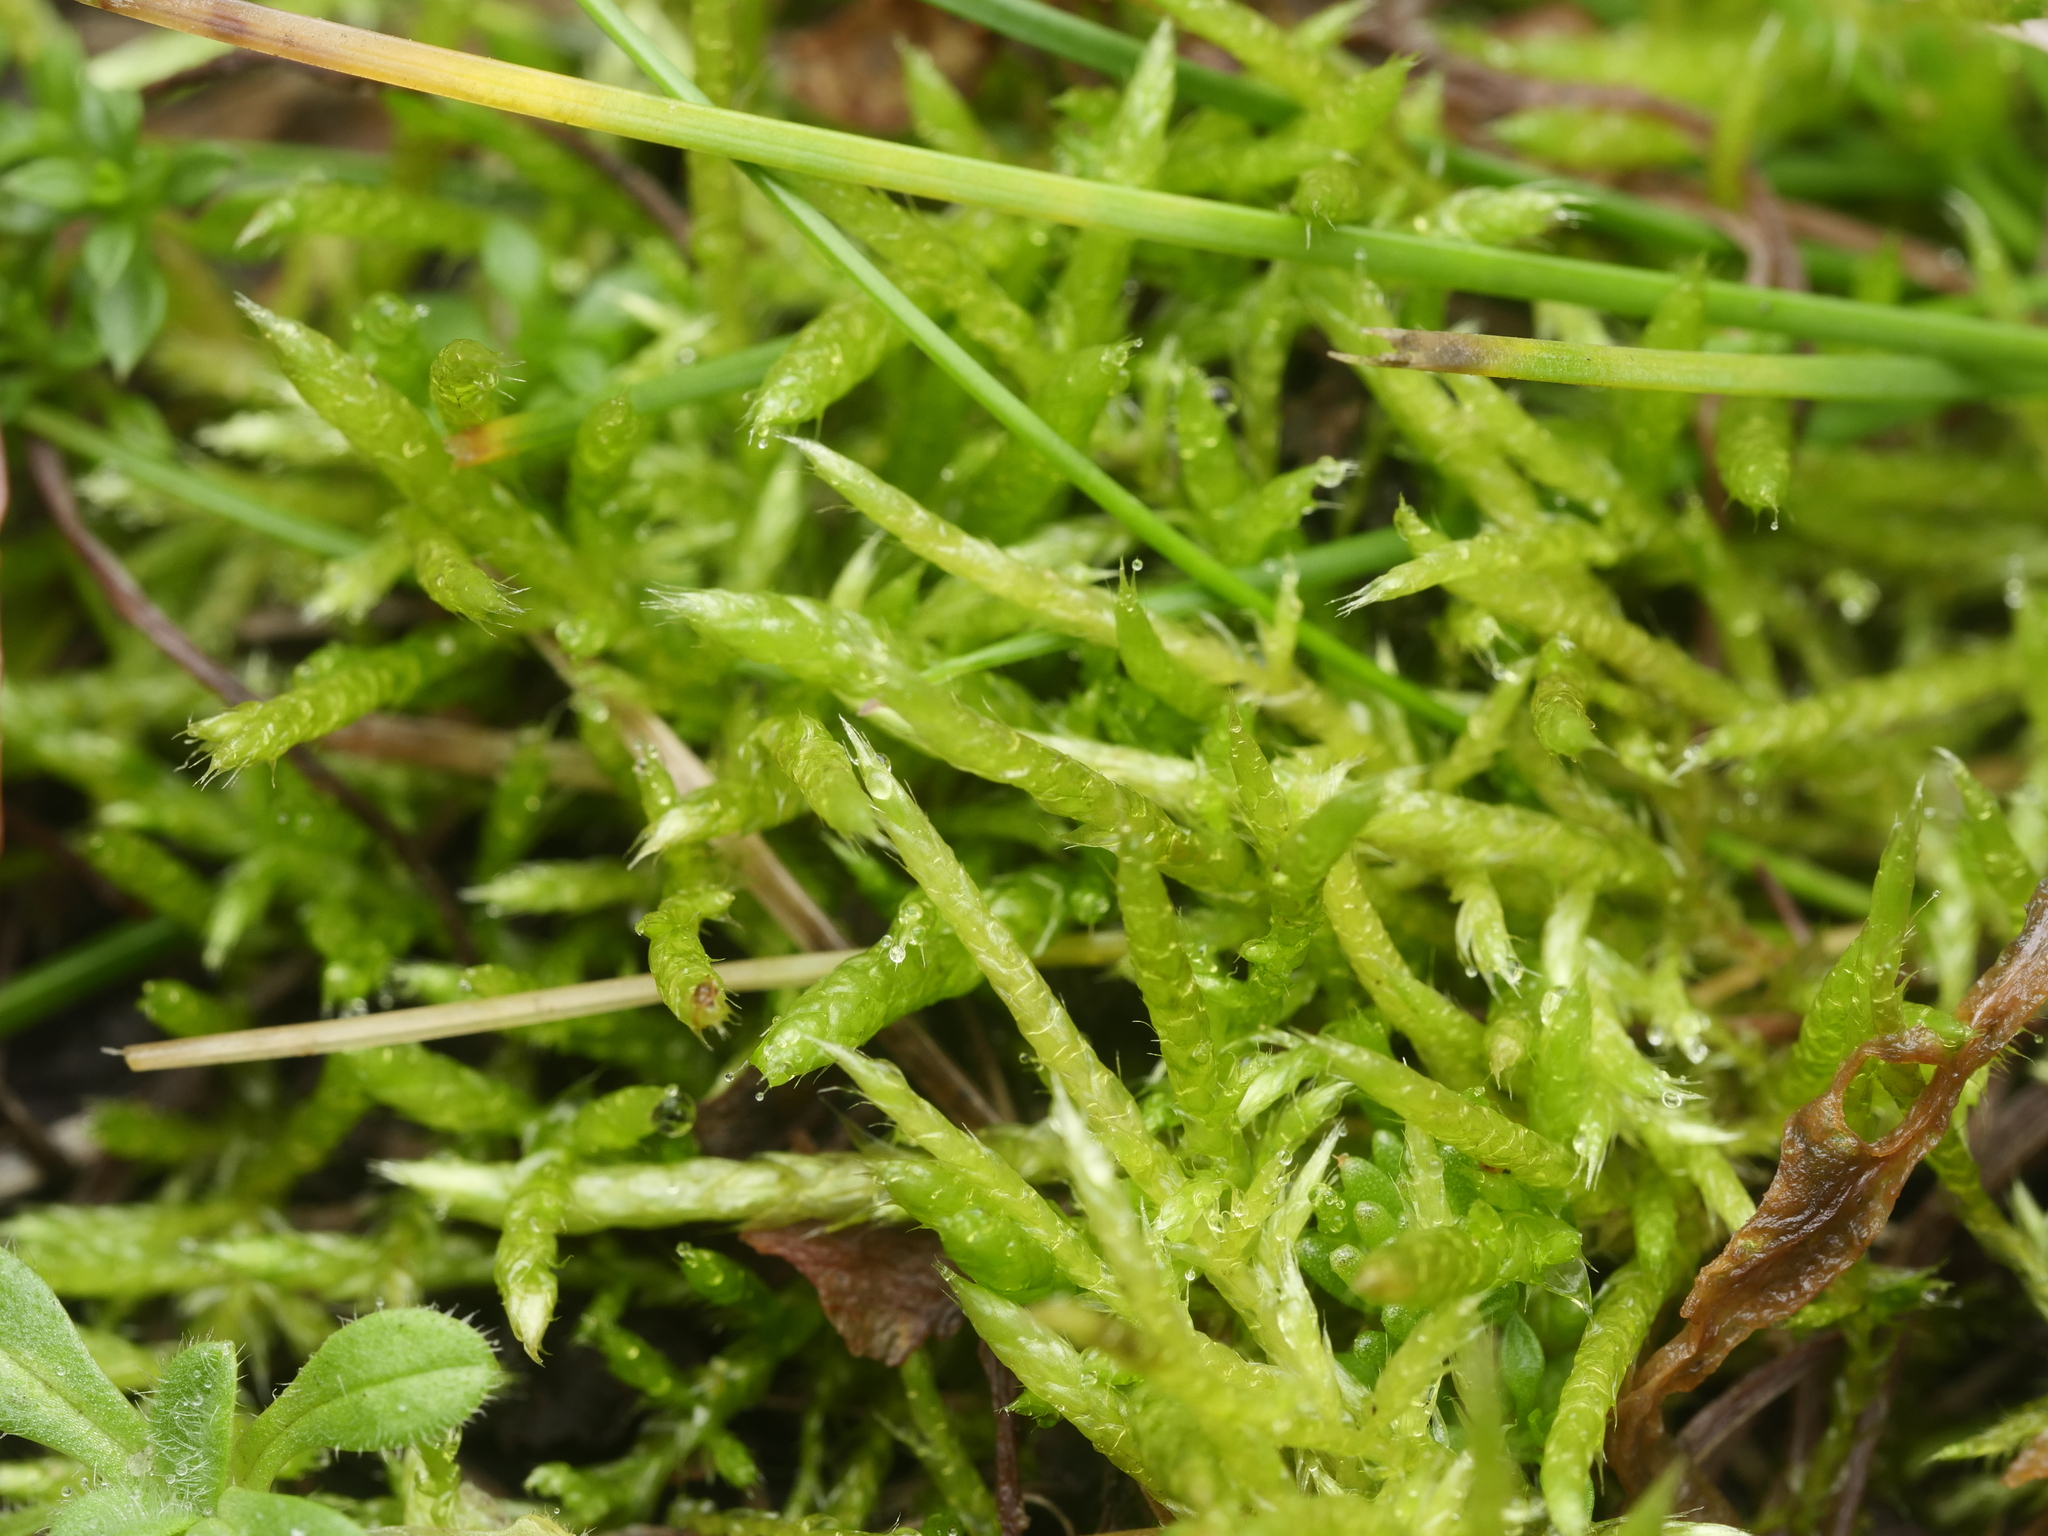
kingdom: Plantae
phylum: Bryophyta
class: Bryopsida
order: Hypnales
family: Brachytheciaceae
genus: Brachythecium
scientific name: Brachythecium albicans
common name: Whitish ragged moss
